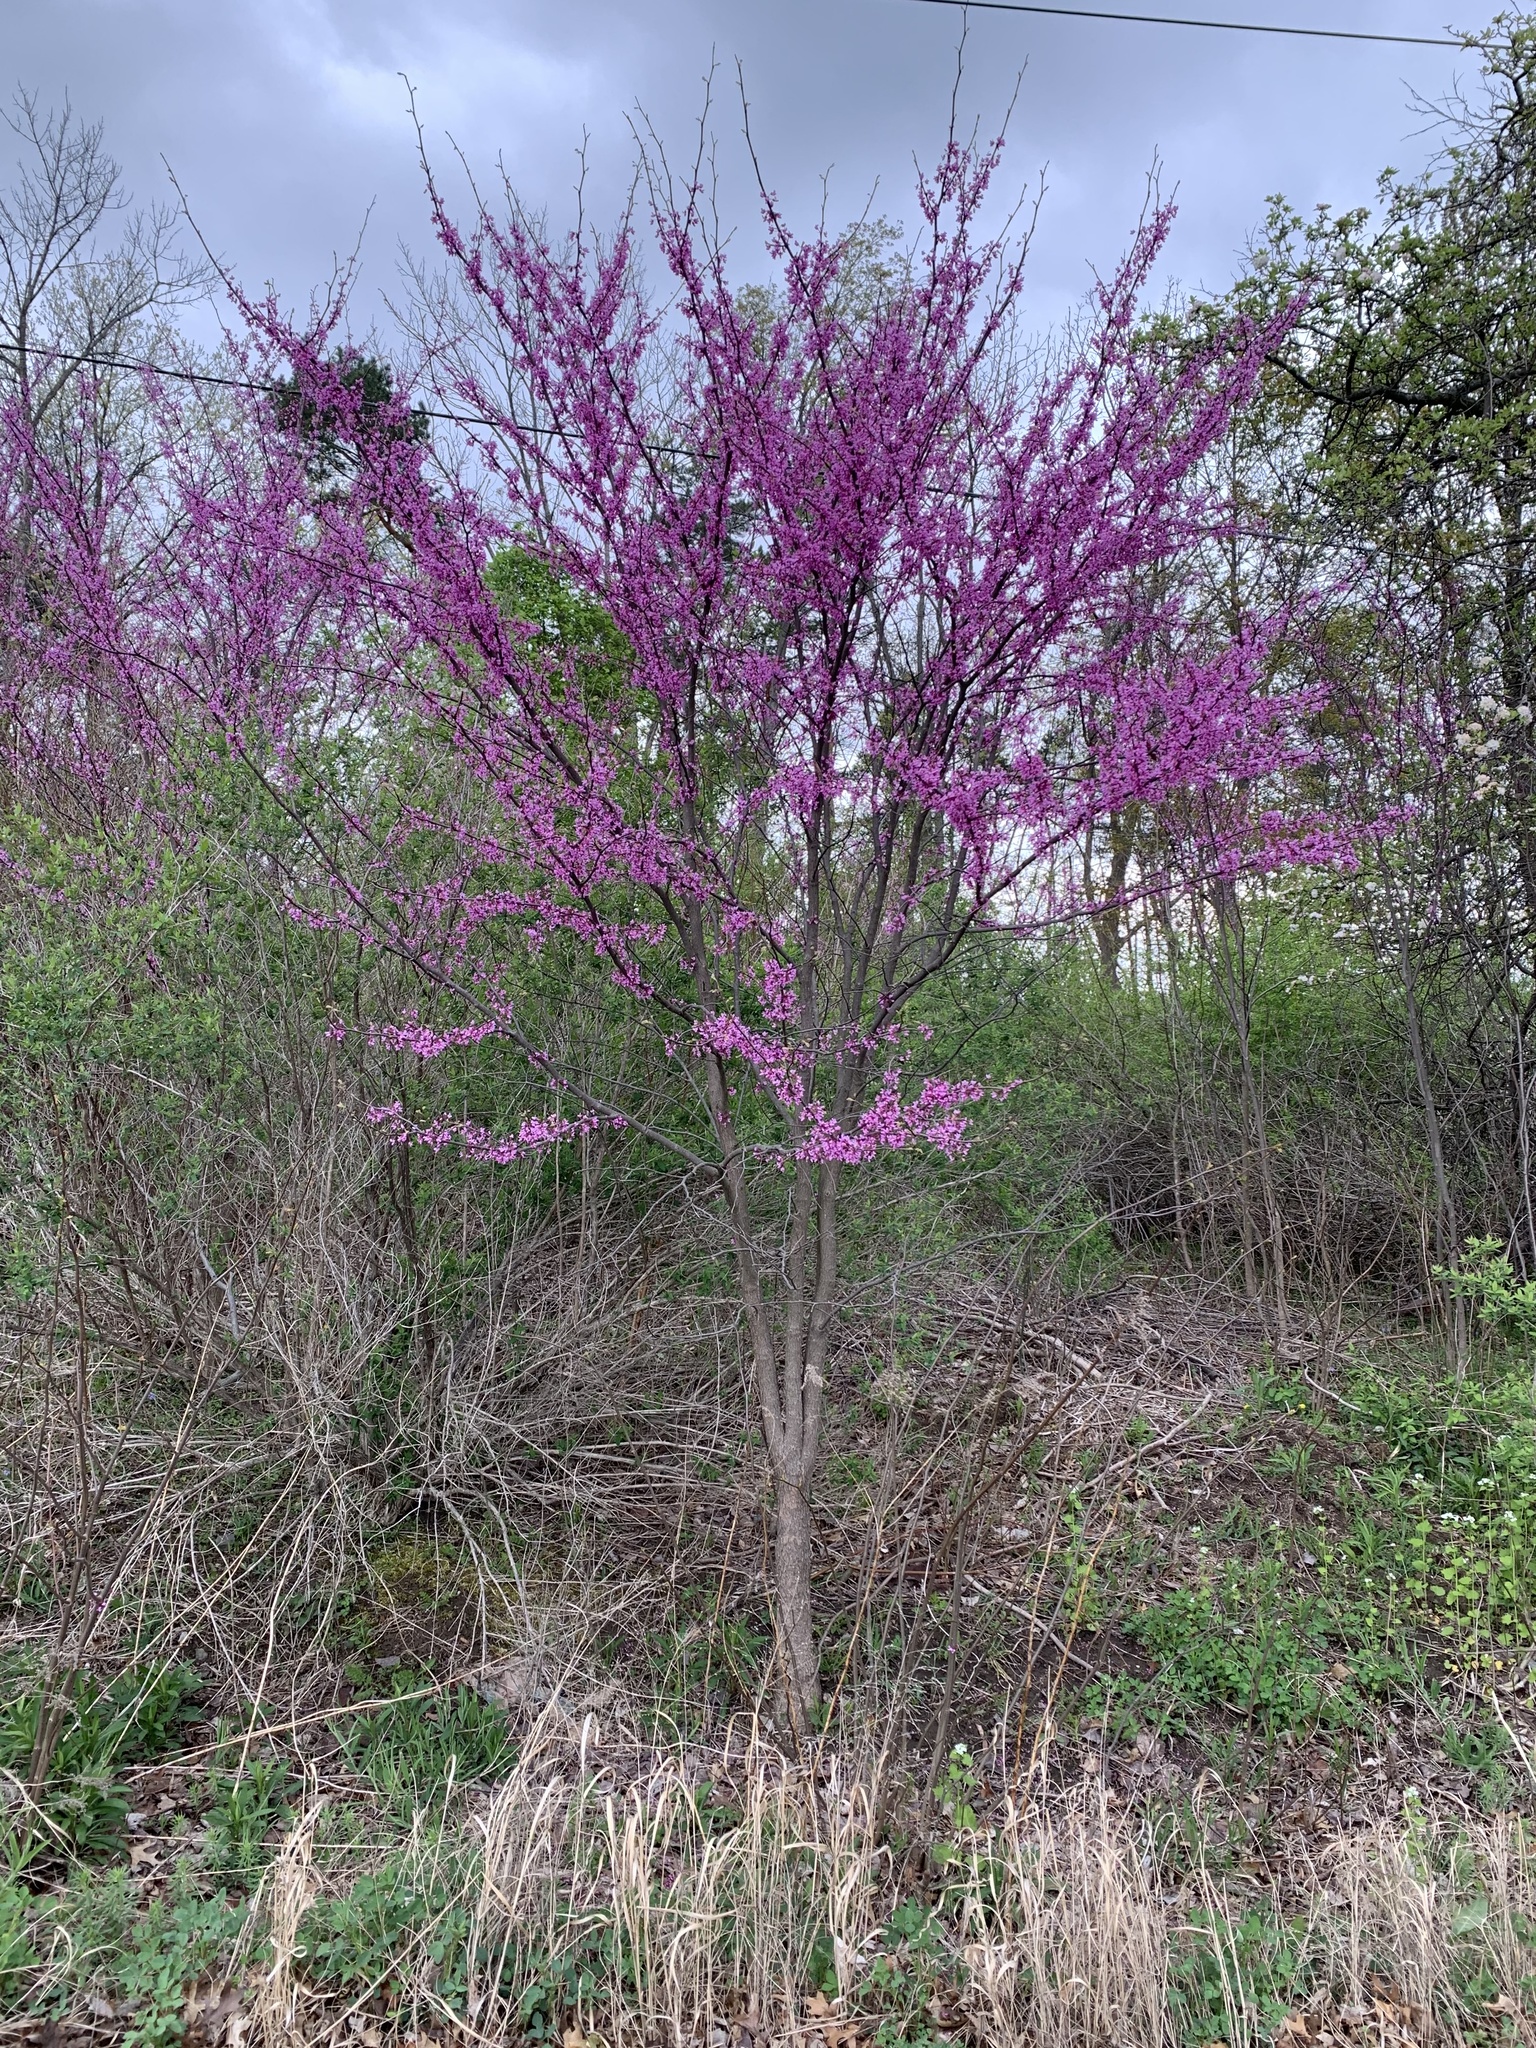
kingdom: Plantae
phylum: Tracheophyta
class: Magnoliopsida
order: Fabales
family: Fabaceae
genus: Cercis
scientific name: Cercis canadensis
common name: Eastern redbud
